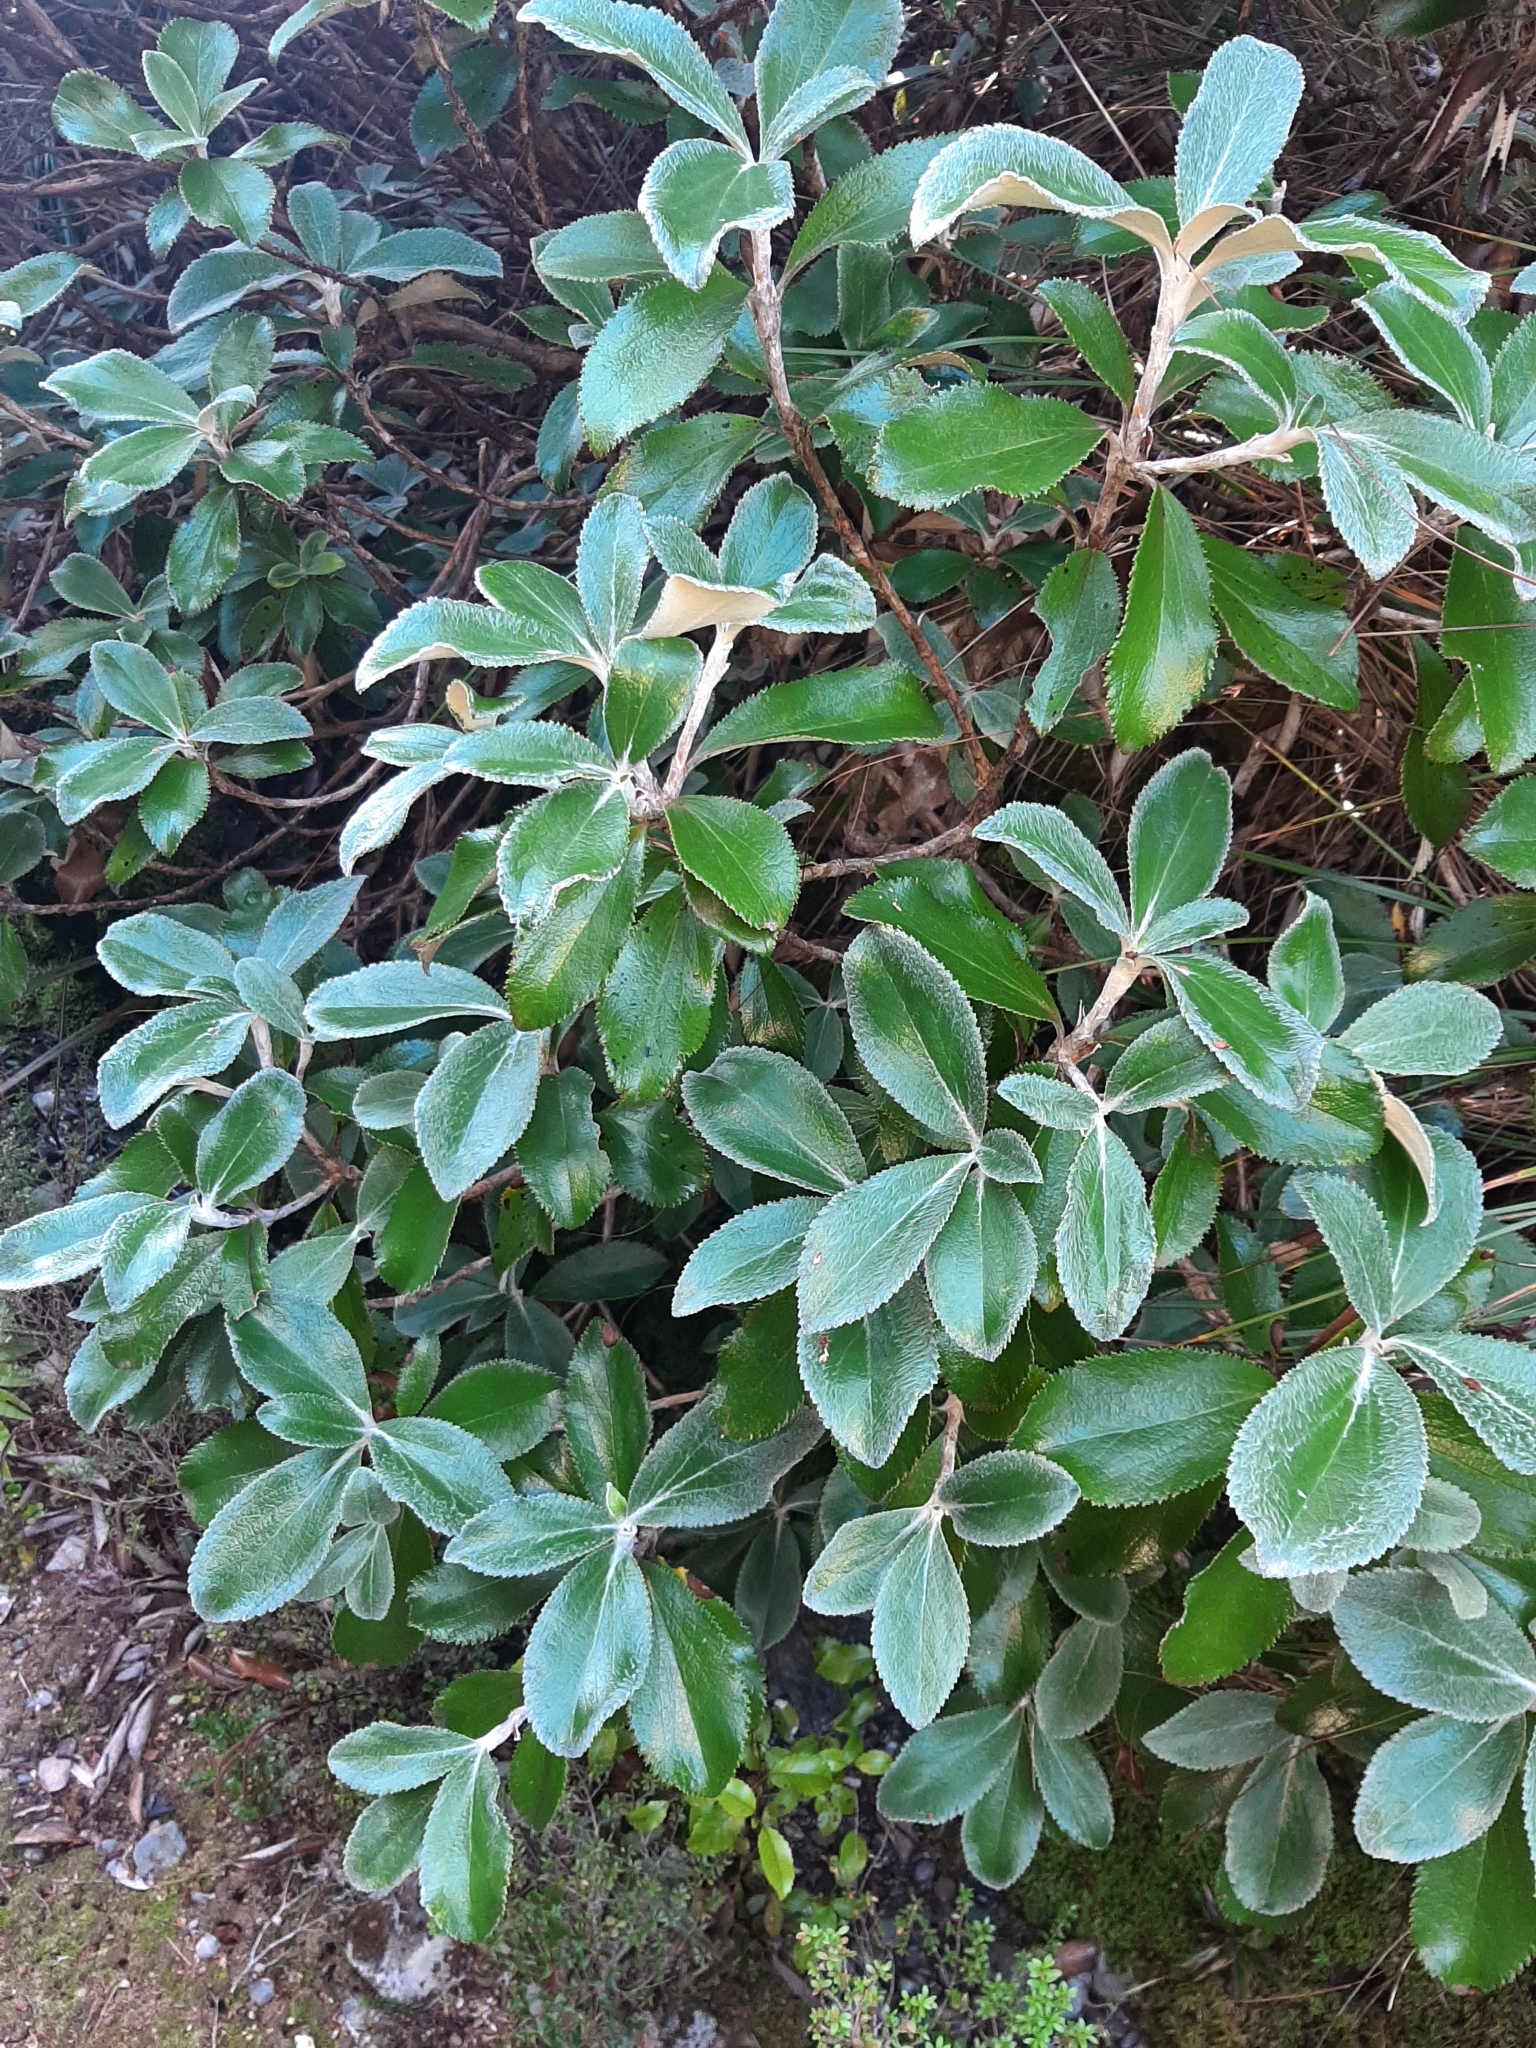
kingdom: Plantae
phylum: Tracheophyta
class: Magnoliopsida
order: Asterales
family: Asteraceae
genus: Macrolearia
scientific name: Macrolearia colensoi
